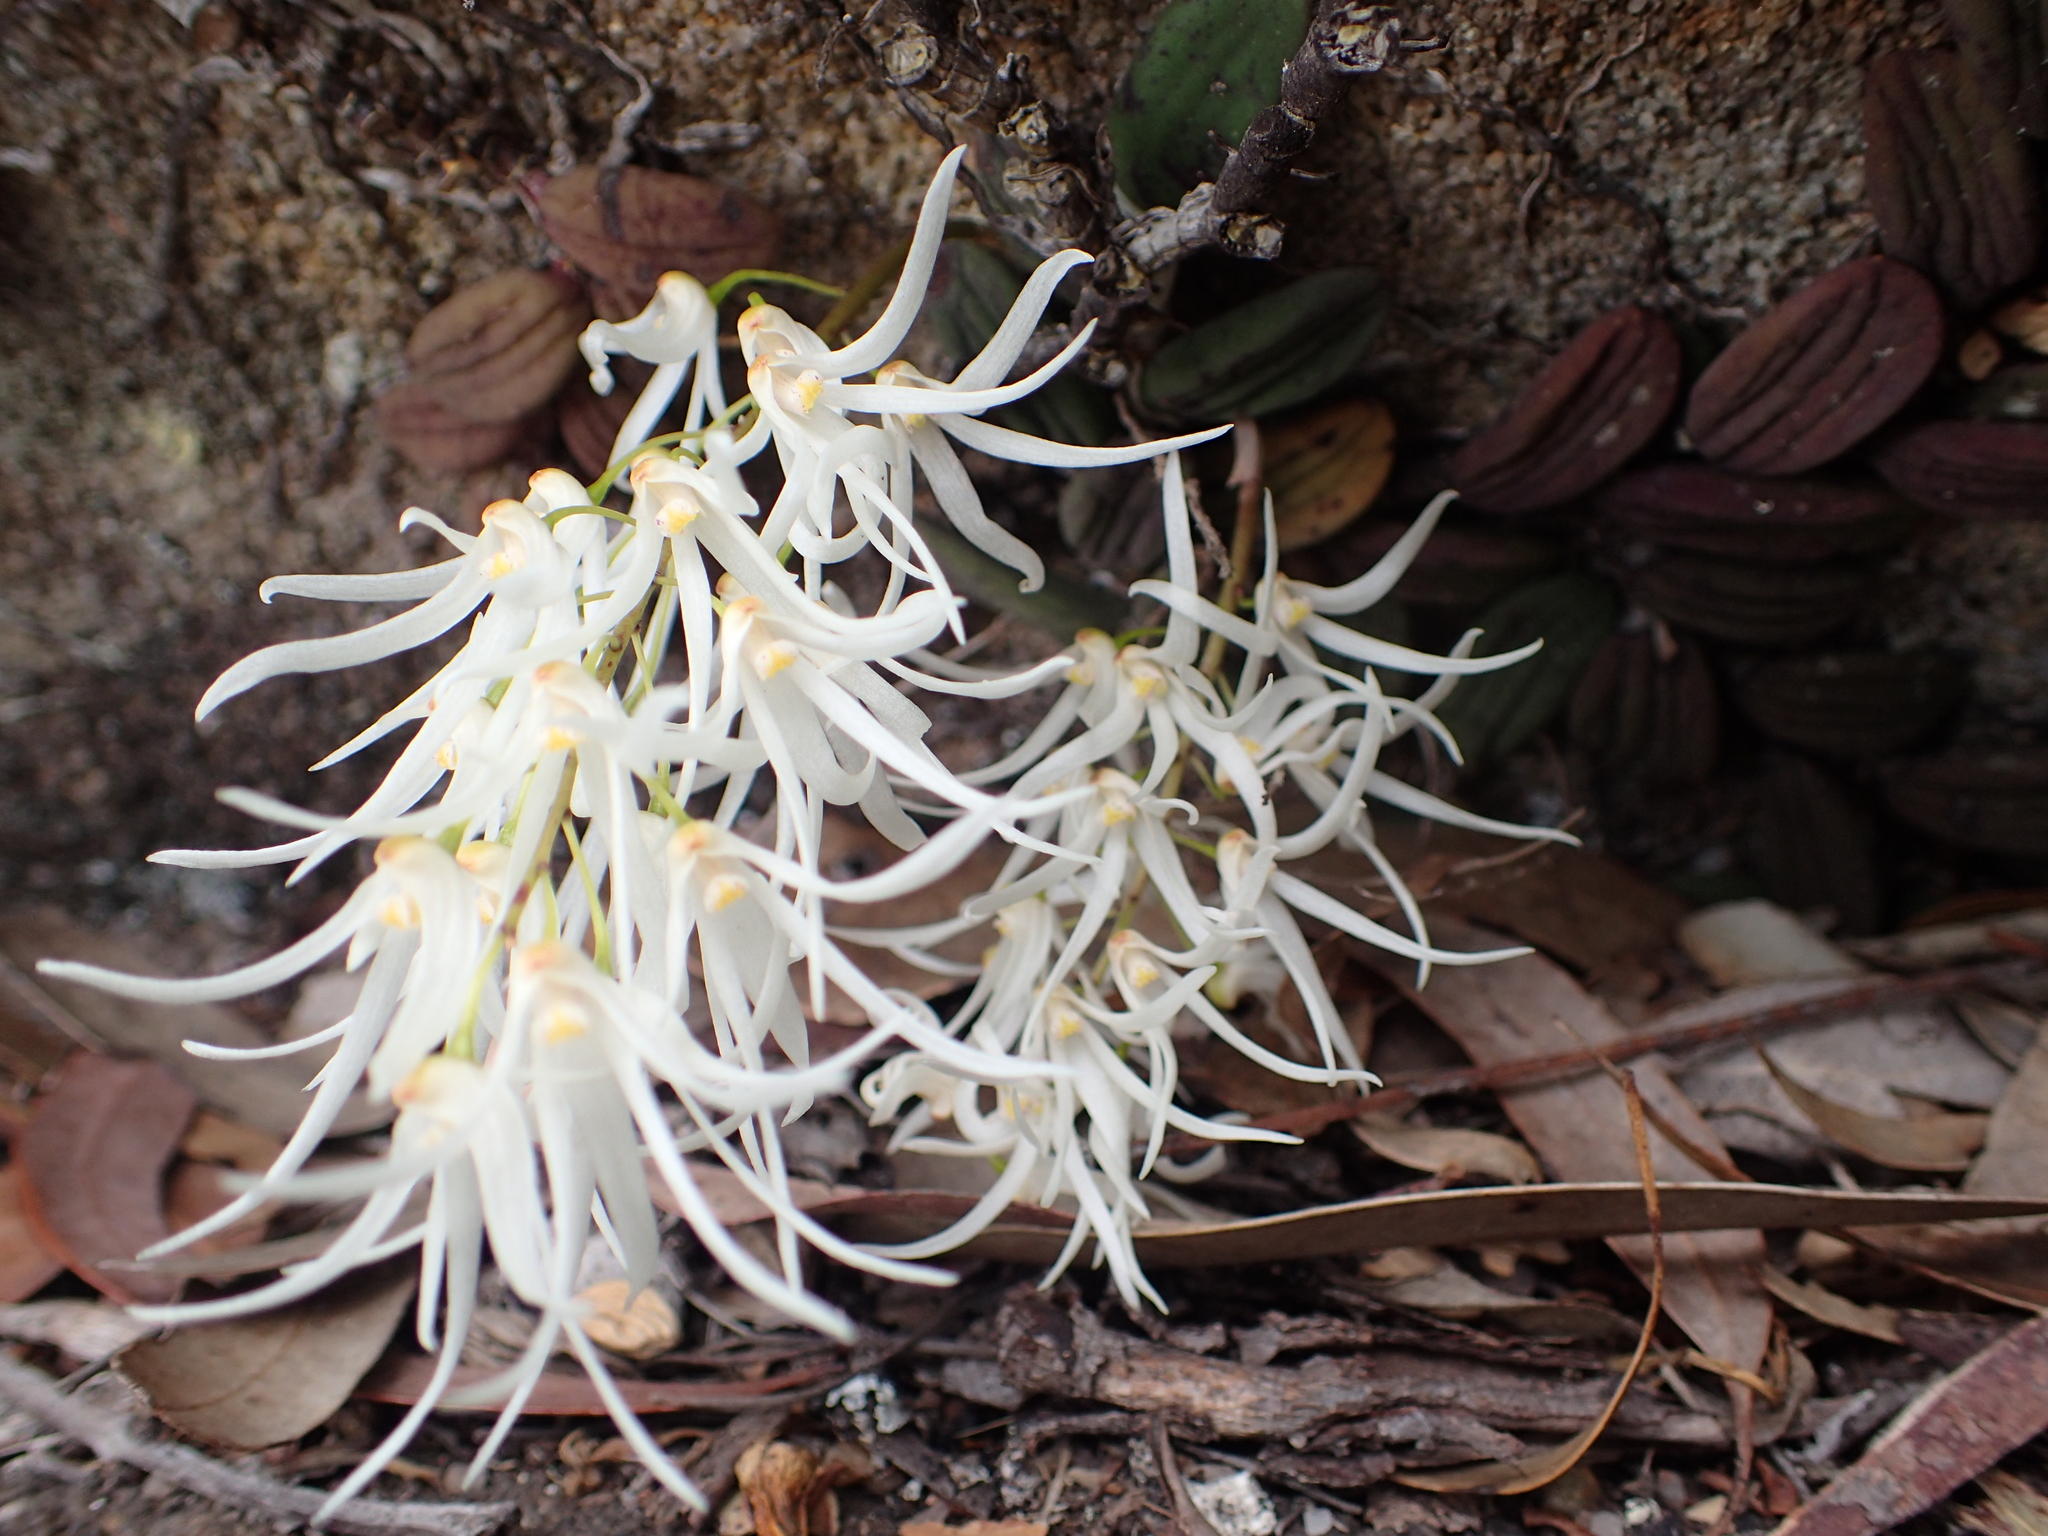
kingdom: Plantae
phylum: Tracheophyta
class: Liliopsida
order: Asparagales
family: Orchidaceae
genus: Dendrobium
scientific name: Dendrobium linguiforme
